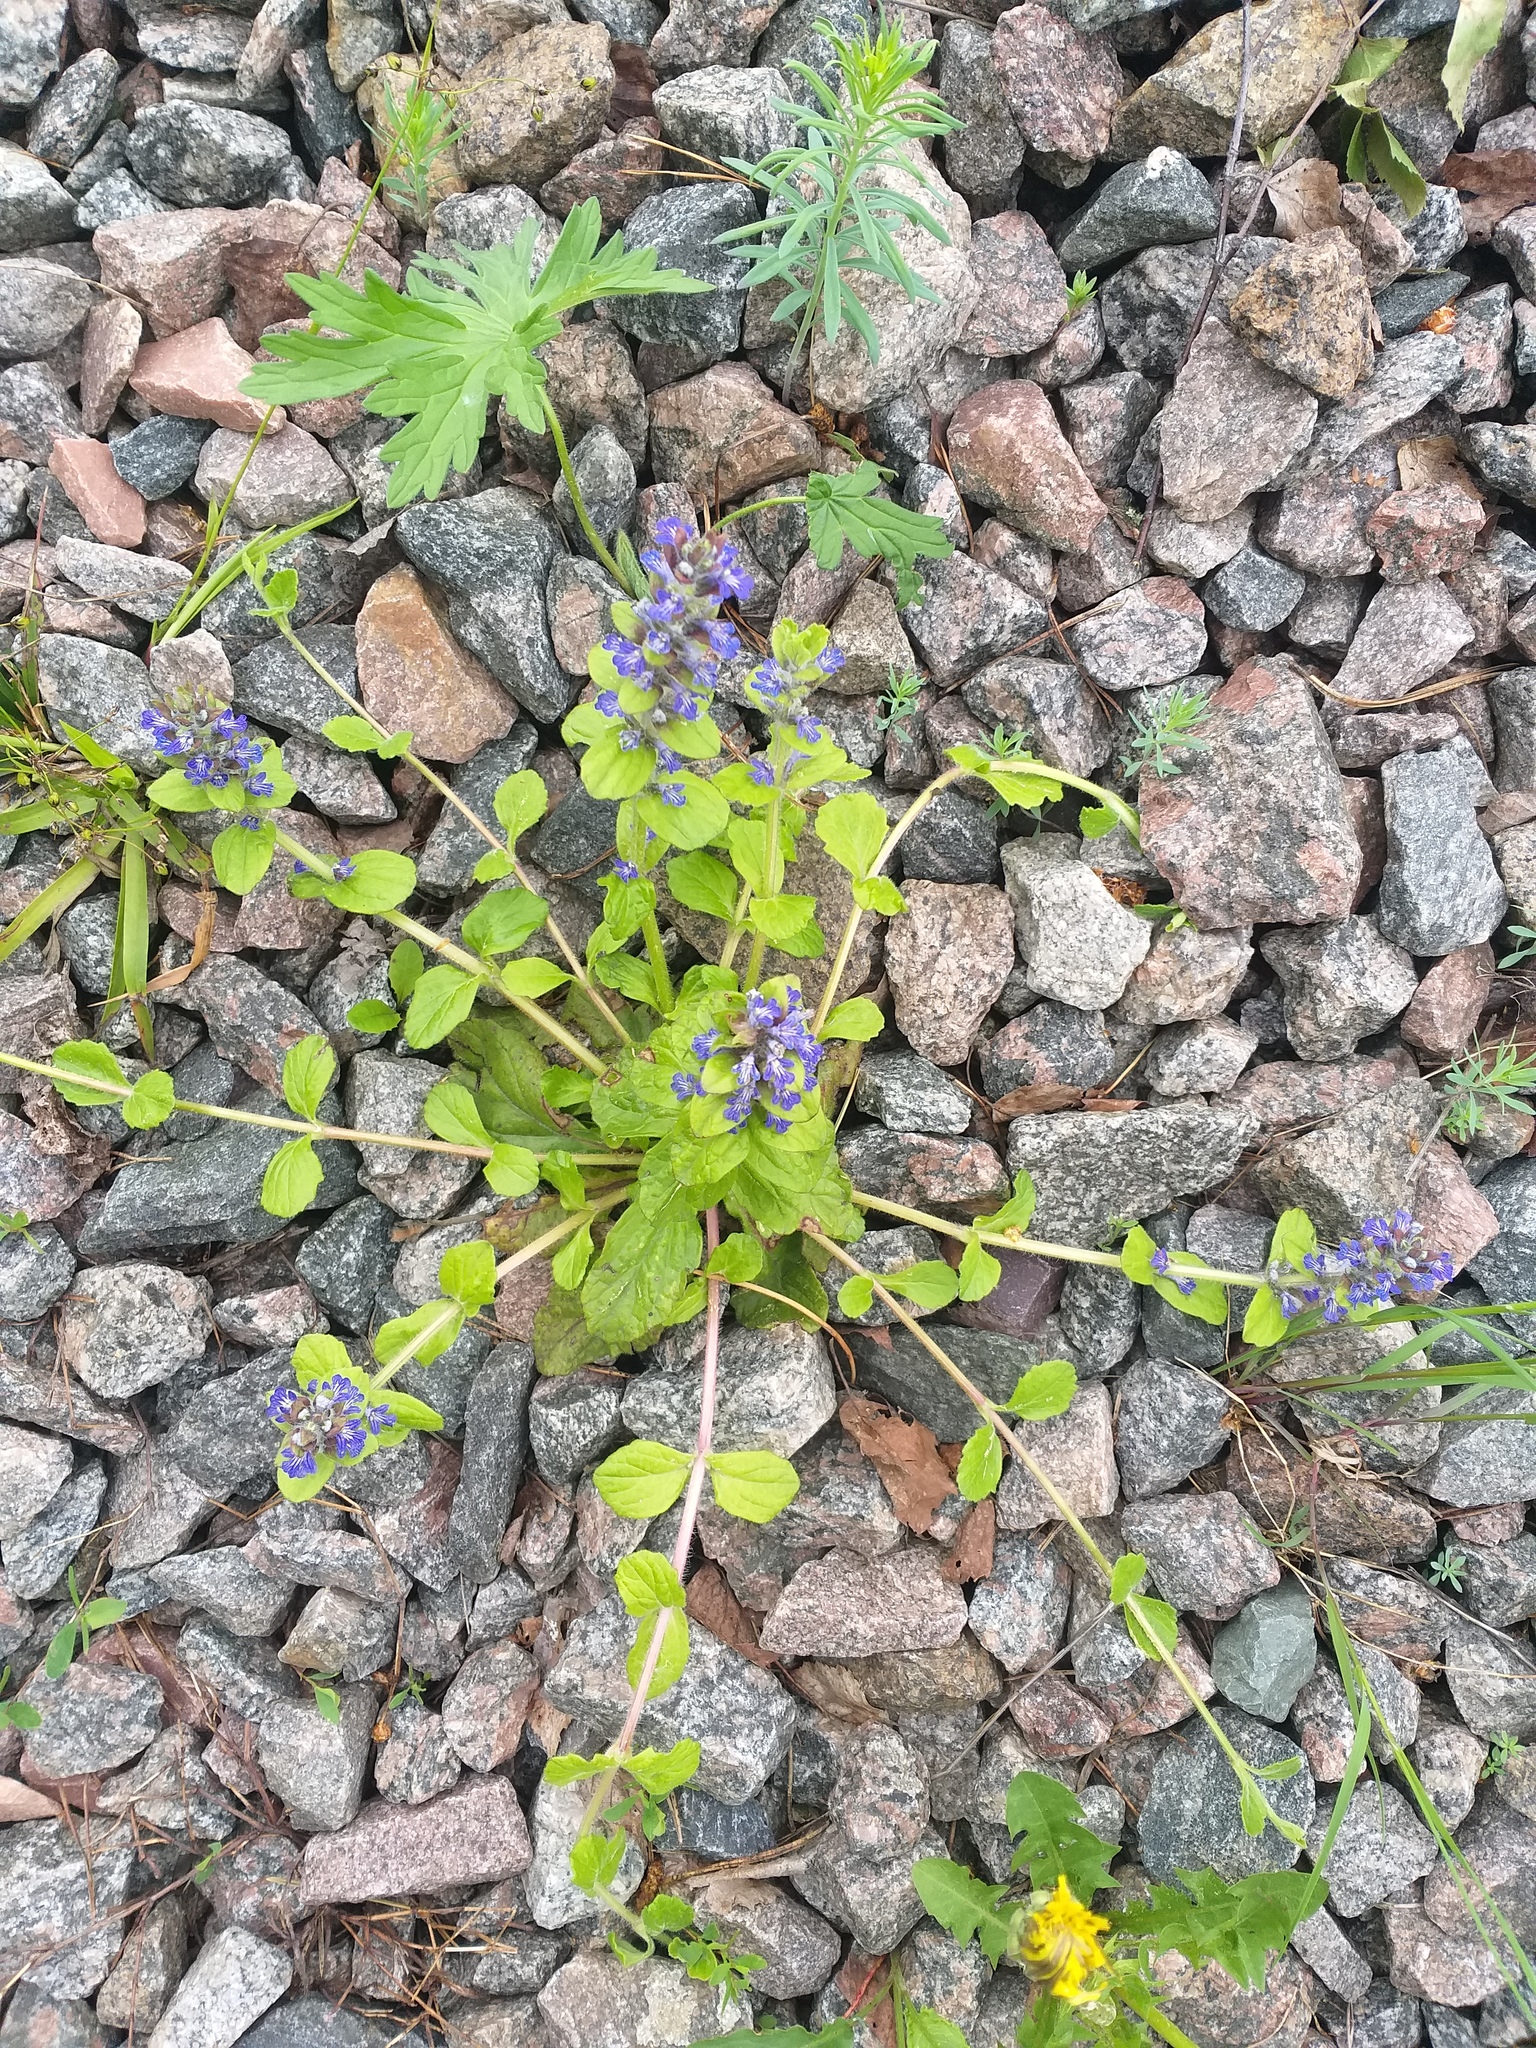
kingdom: Plantae
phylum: Tracheophyta
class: Magnoliopsida
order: Lamiales
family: Lamiaceae
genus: Ajuga
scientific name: Ajuga reptans
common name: Bugle
